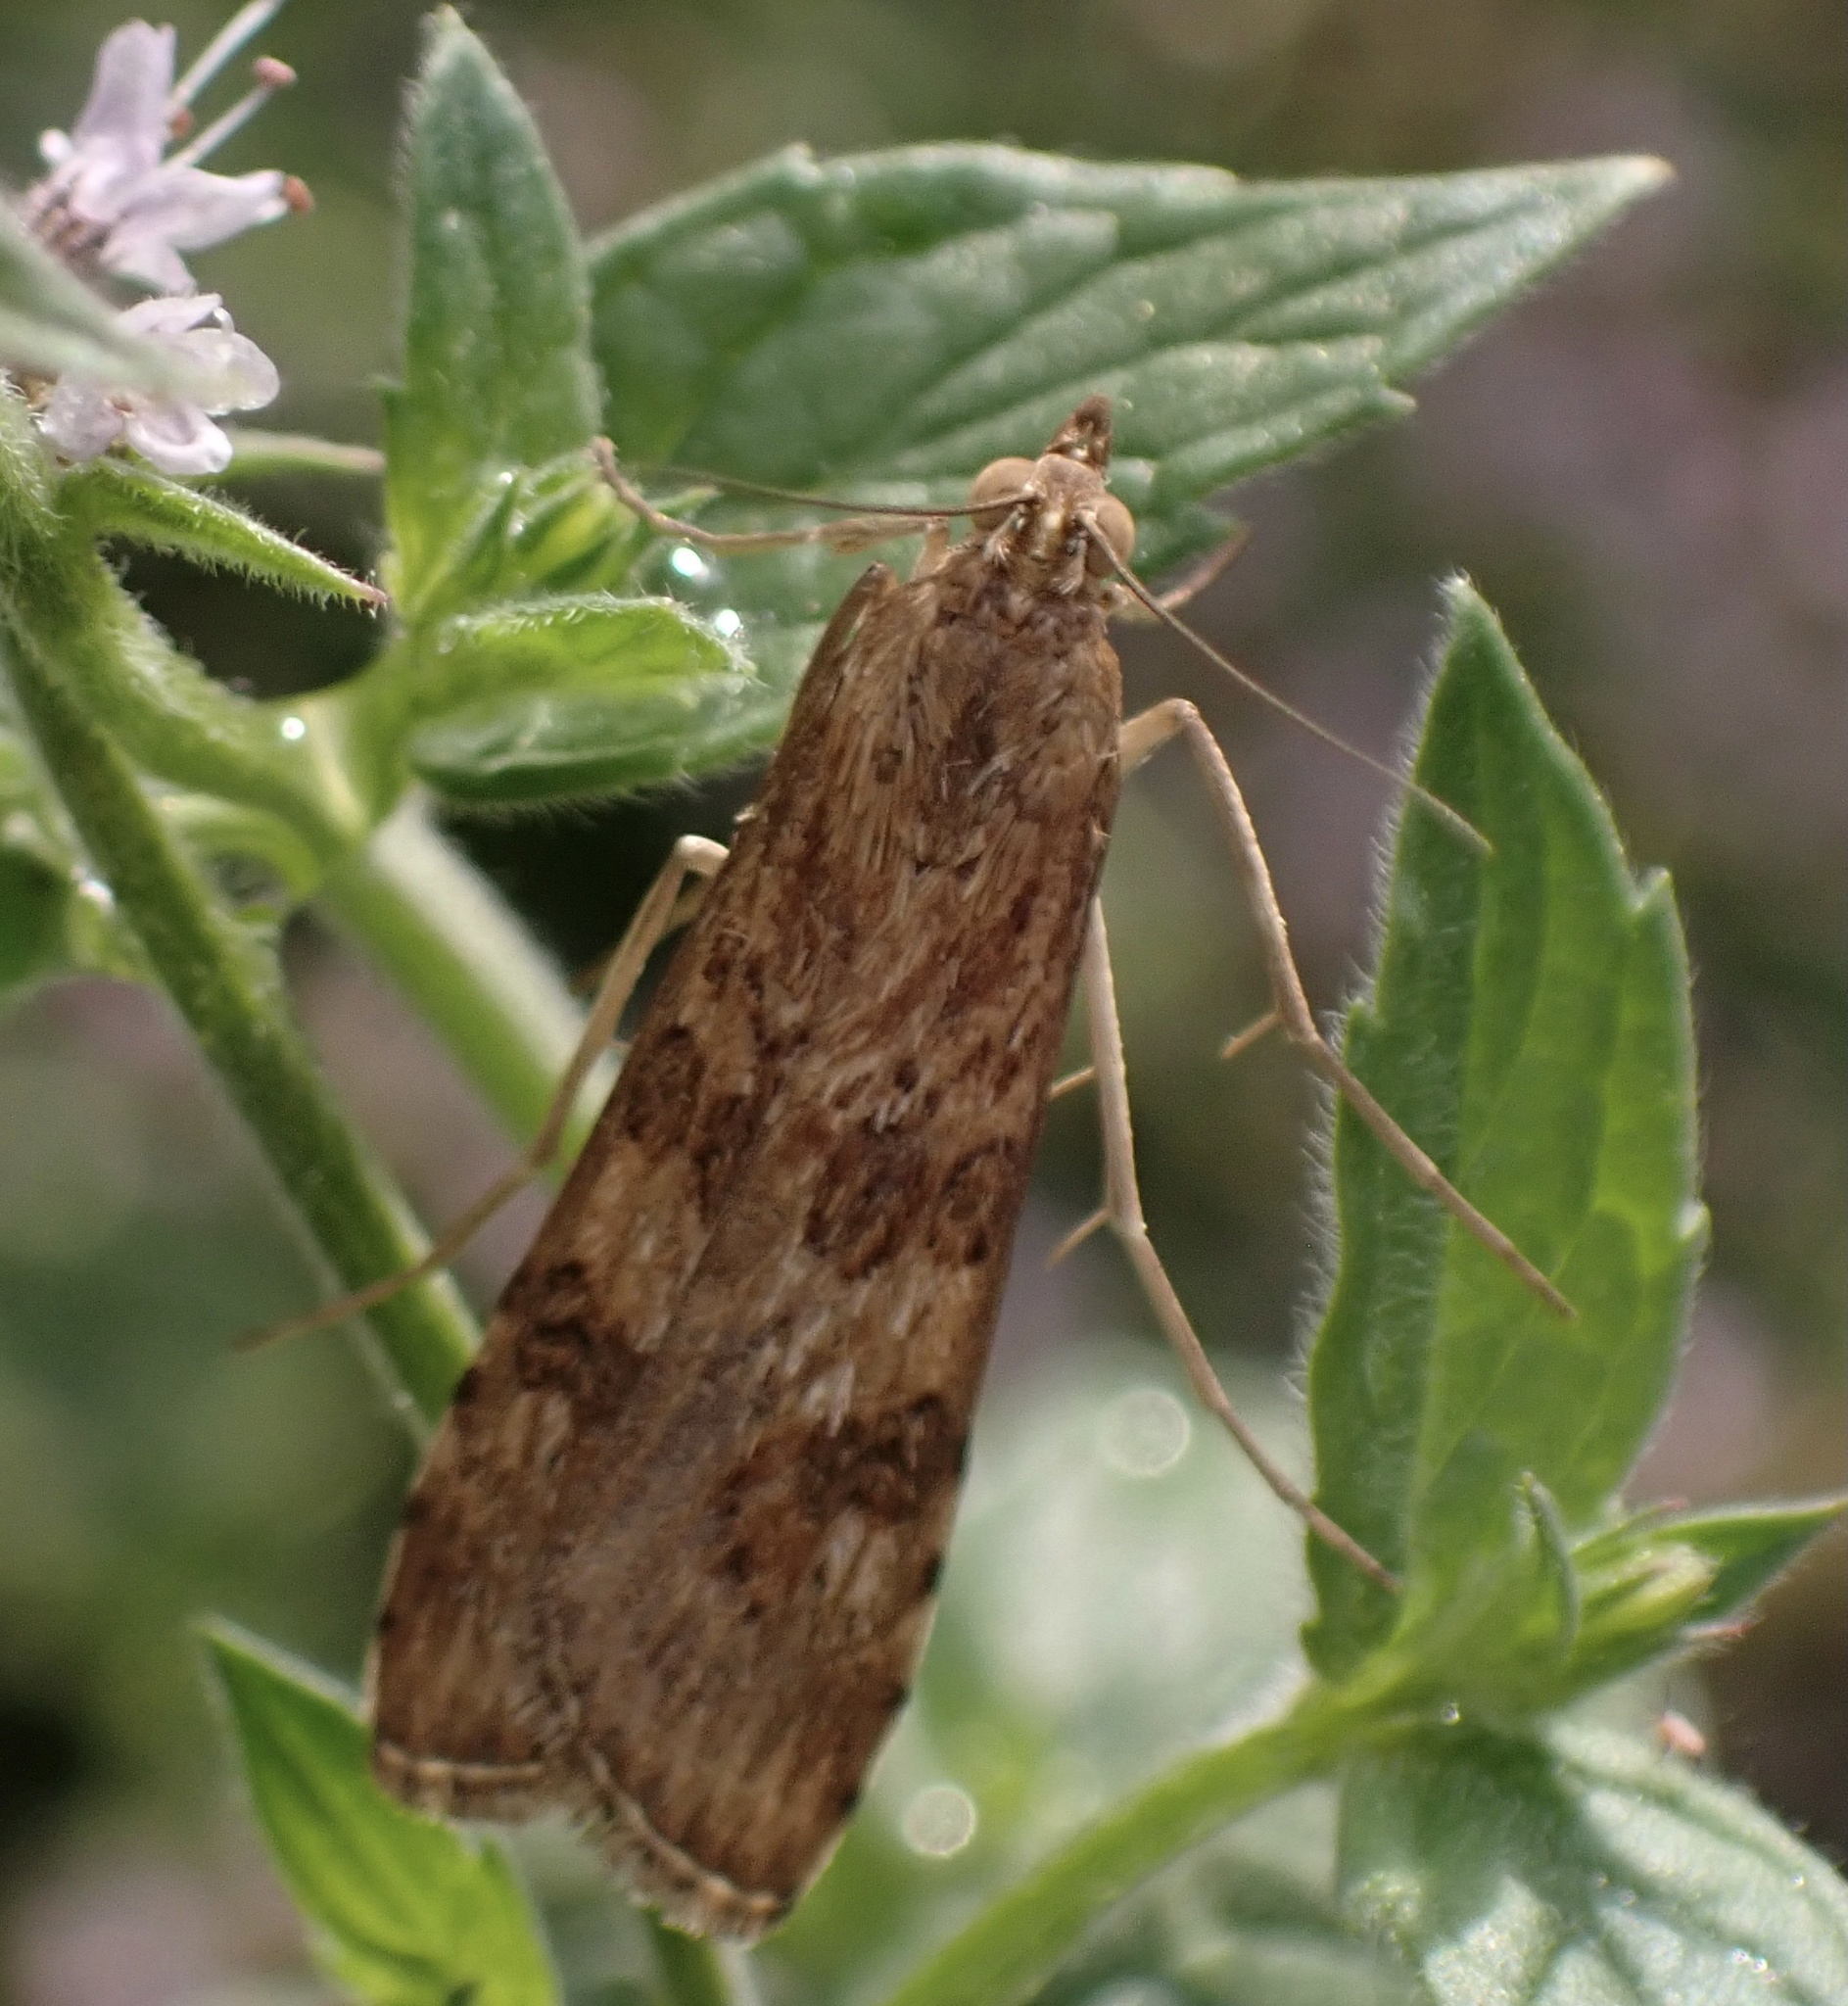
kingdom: Animalia
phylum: Arthropoda
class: Insecta
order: Lepidoptera
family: Crambidae
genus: Nomophila
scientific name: Nomophila noctuella
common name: Rush veneer
